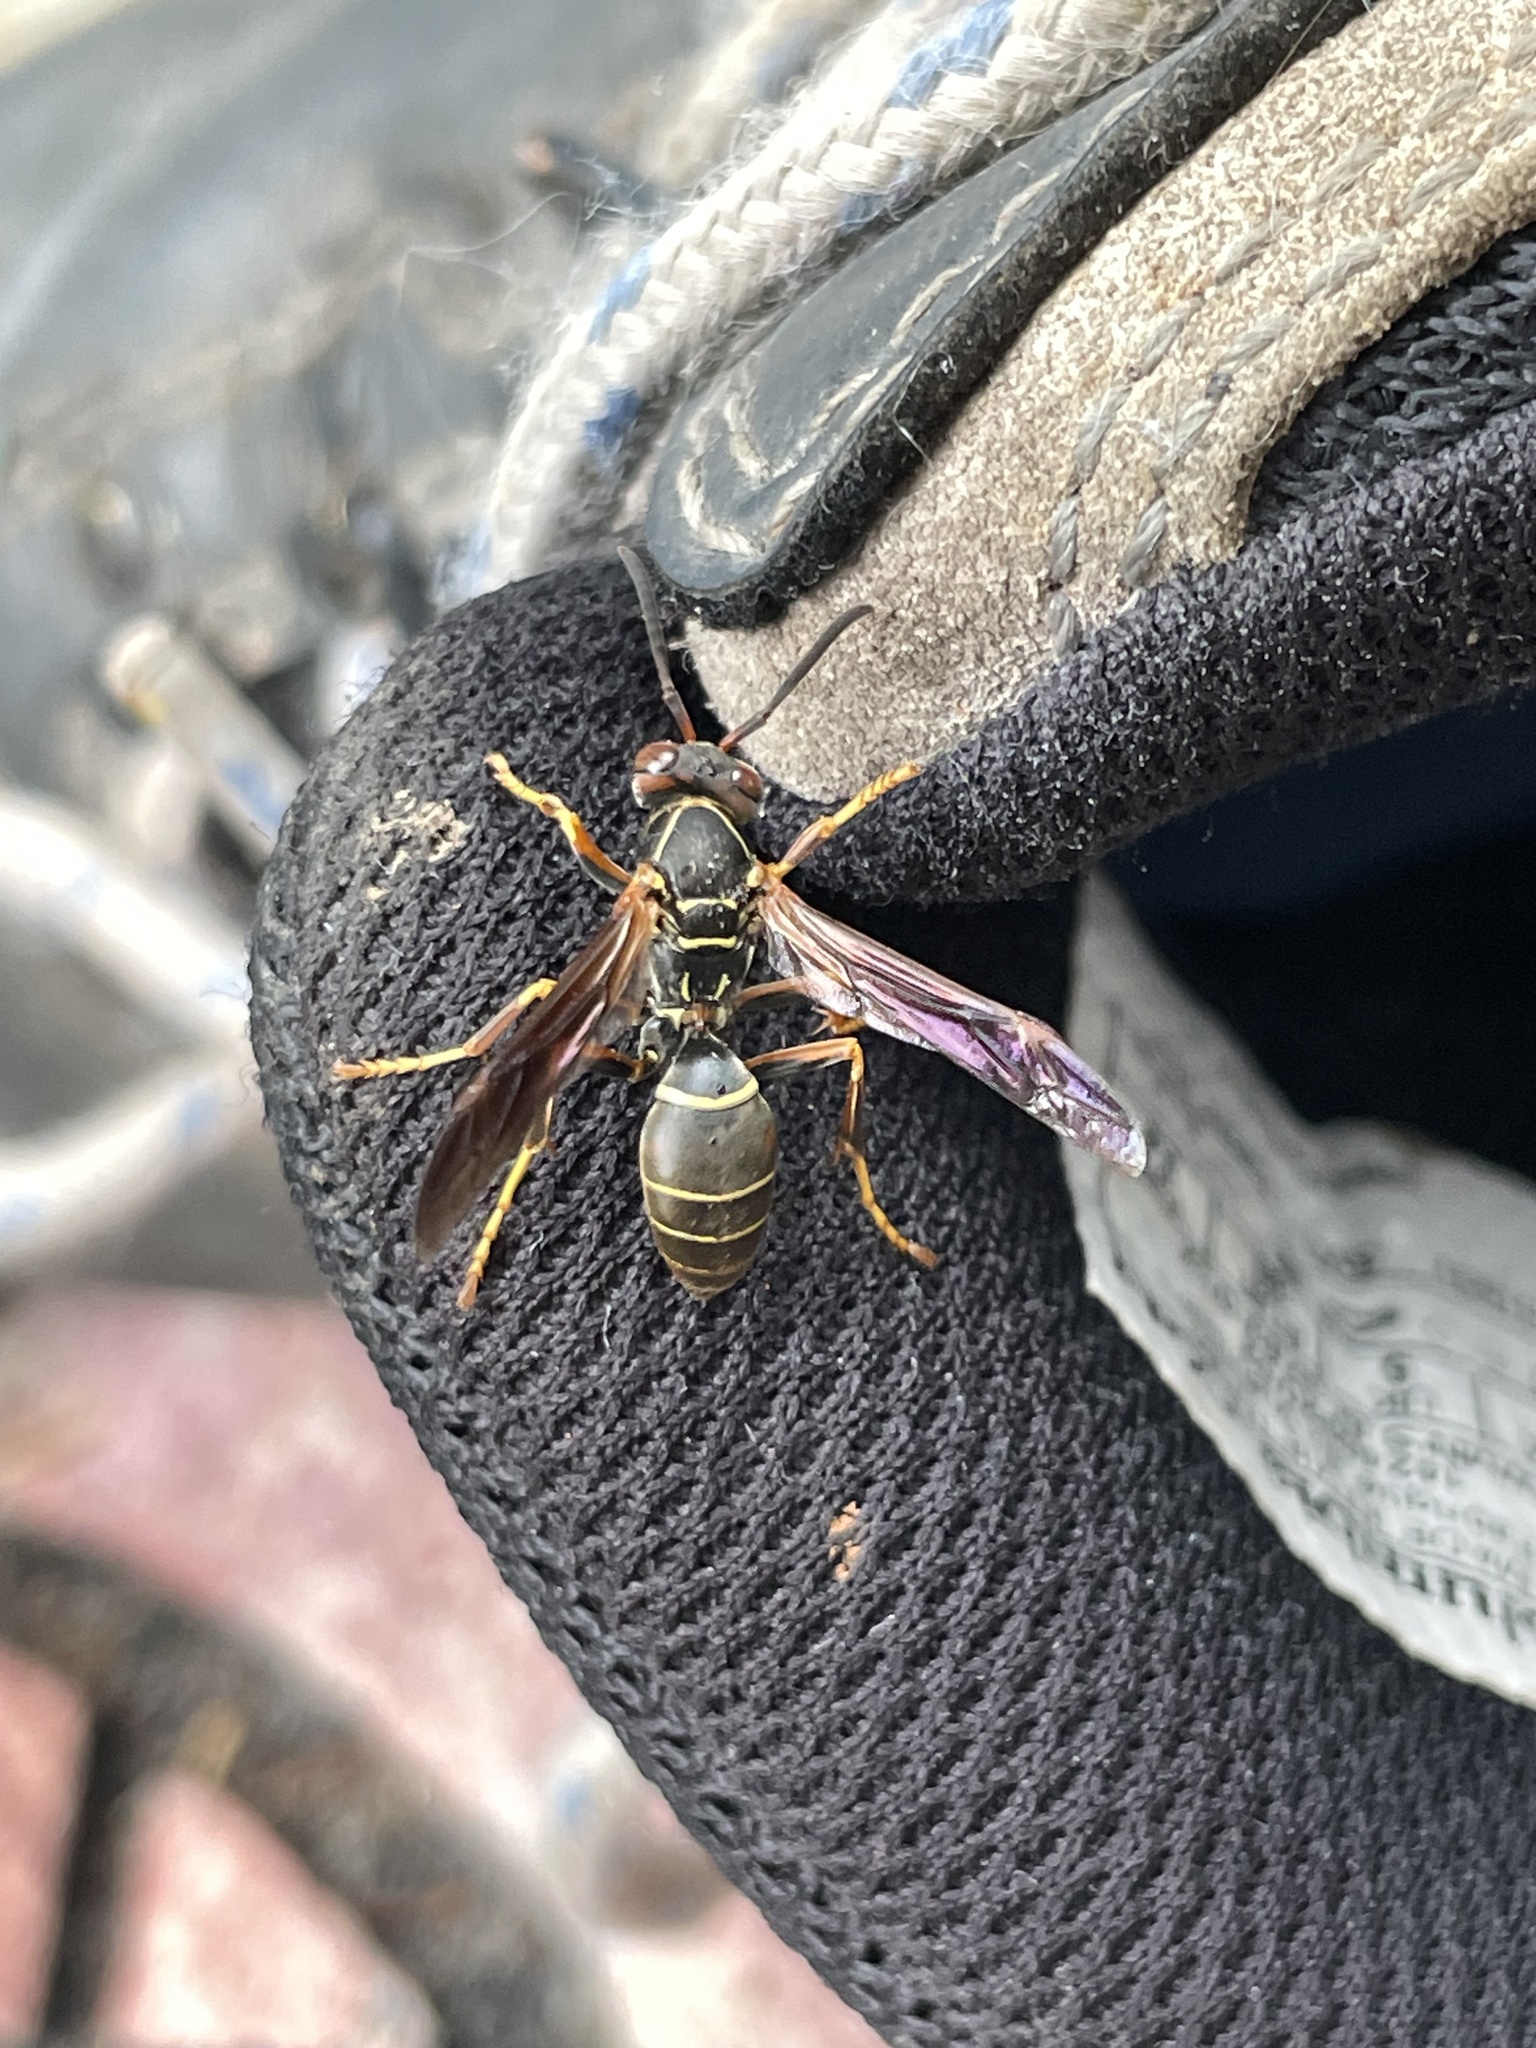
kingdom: Animalia
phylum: Arthropoda
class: Insecta
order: Hymenoptera
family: Eumenidae
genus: Polistes
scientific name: Polistes fuscatus
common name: Dark paper wasp
